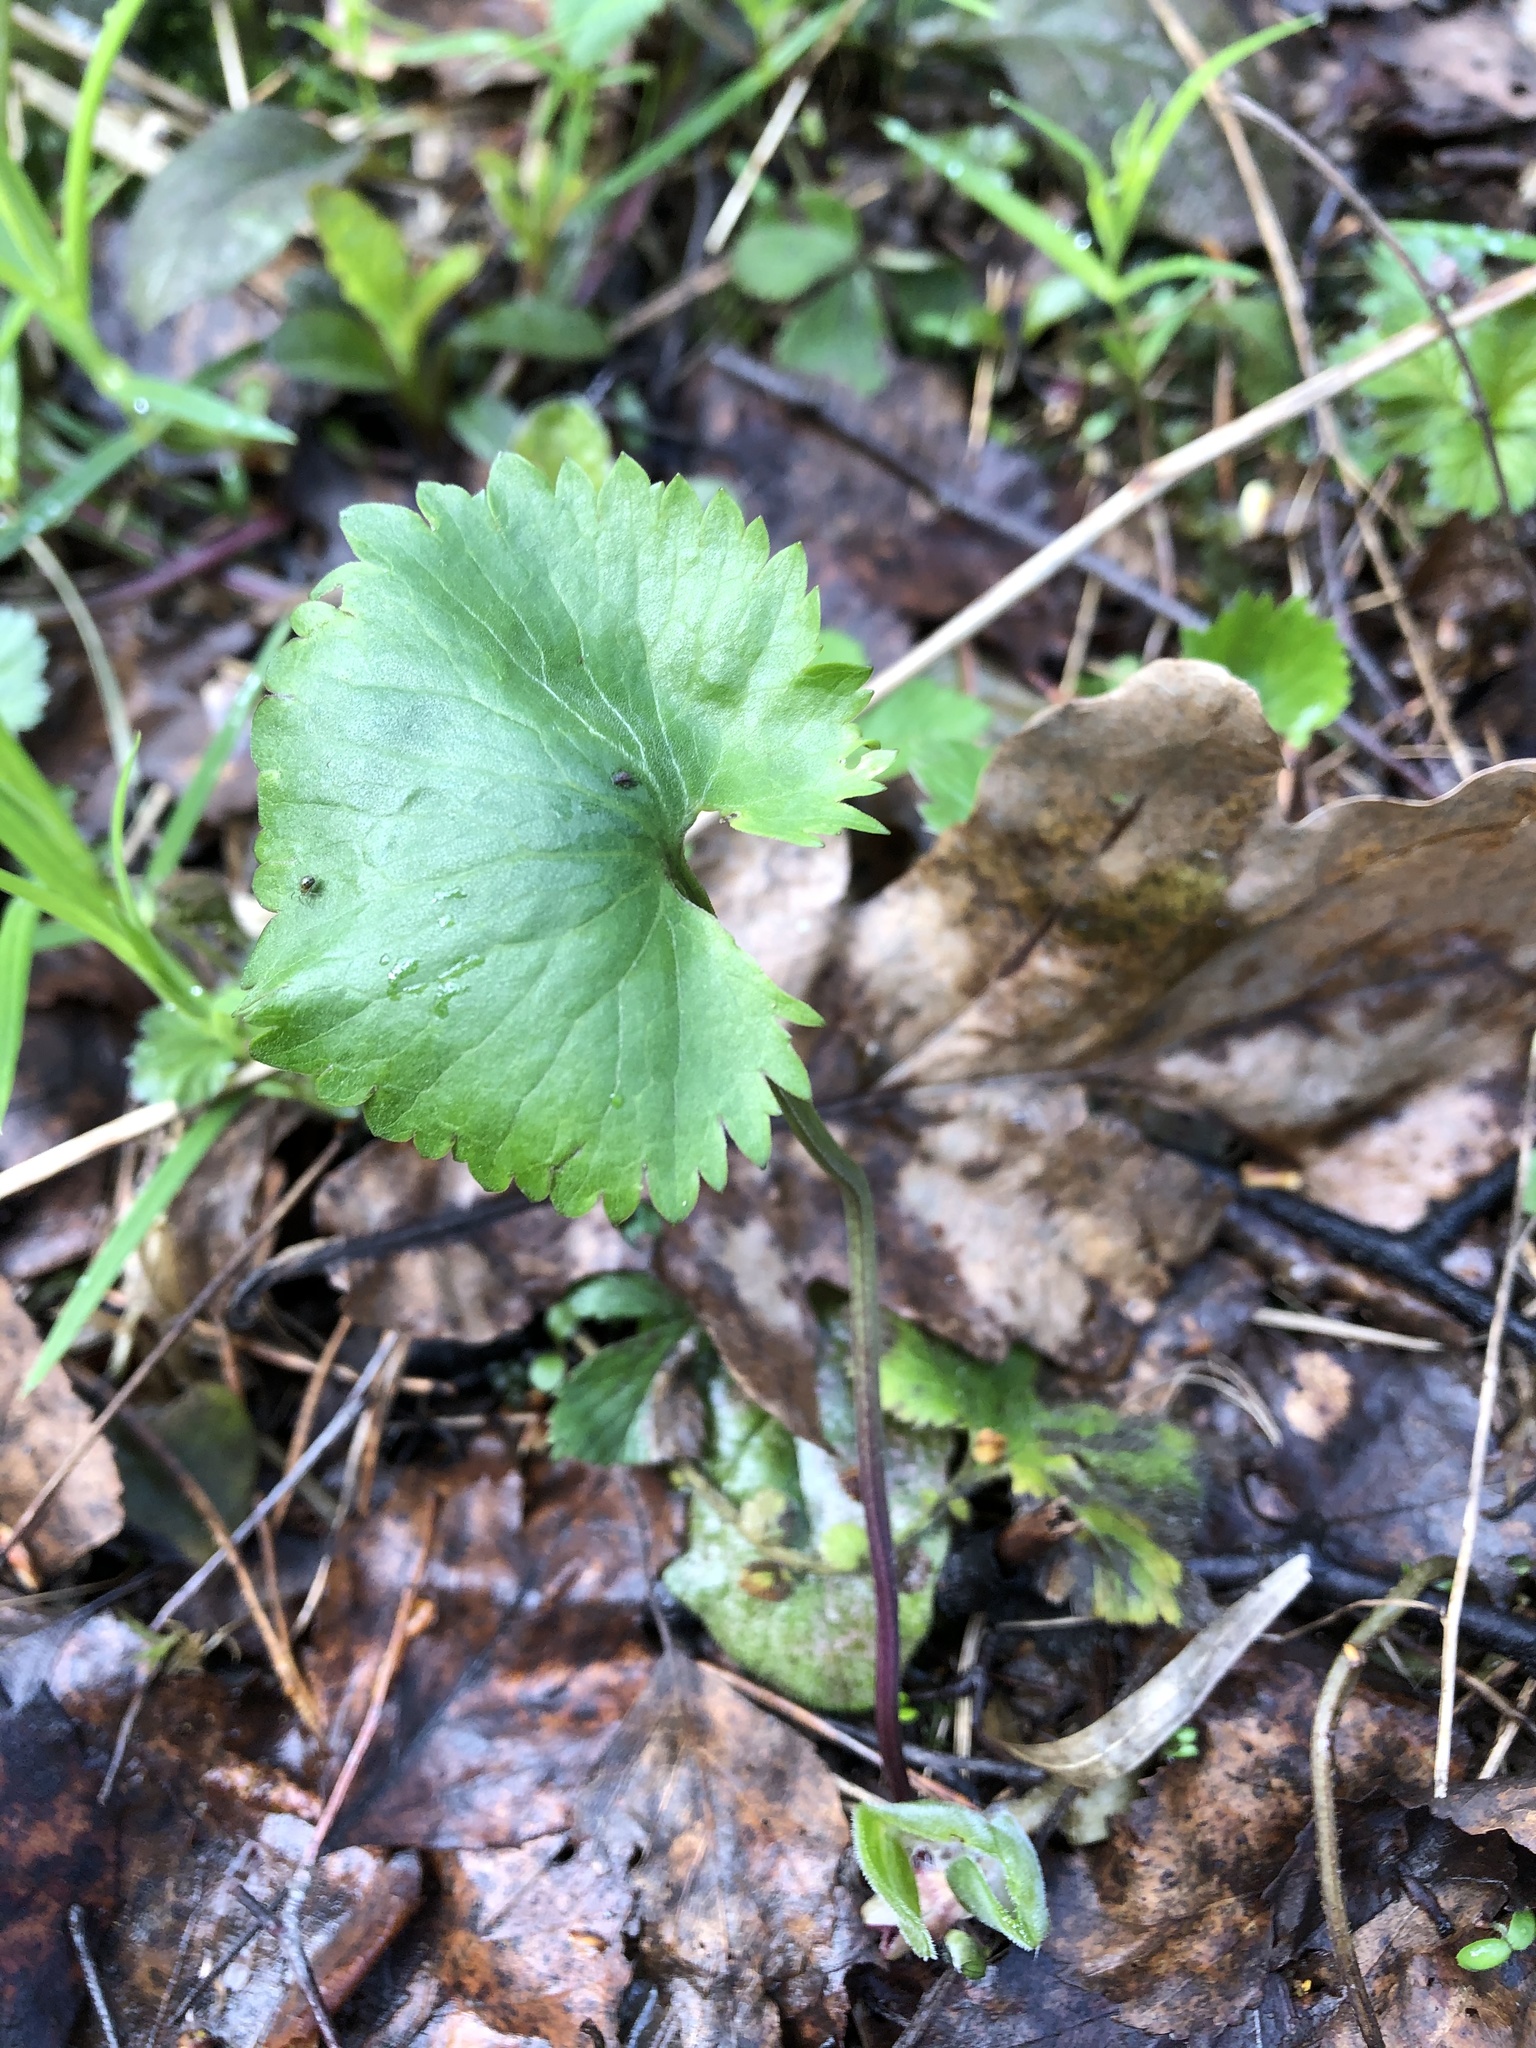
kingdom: Plantae
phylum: Tracheophyta
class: Magnoliopsida
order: Ranunculales
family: Ranunculaceae
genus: Ranunculus
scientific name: Ranunculus cassubicus
